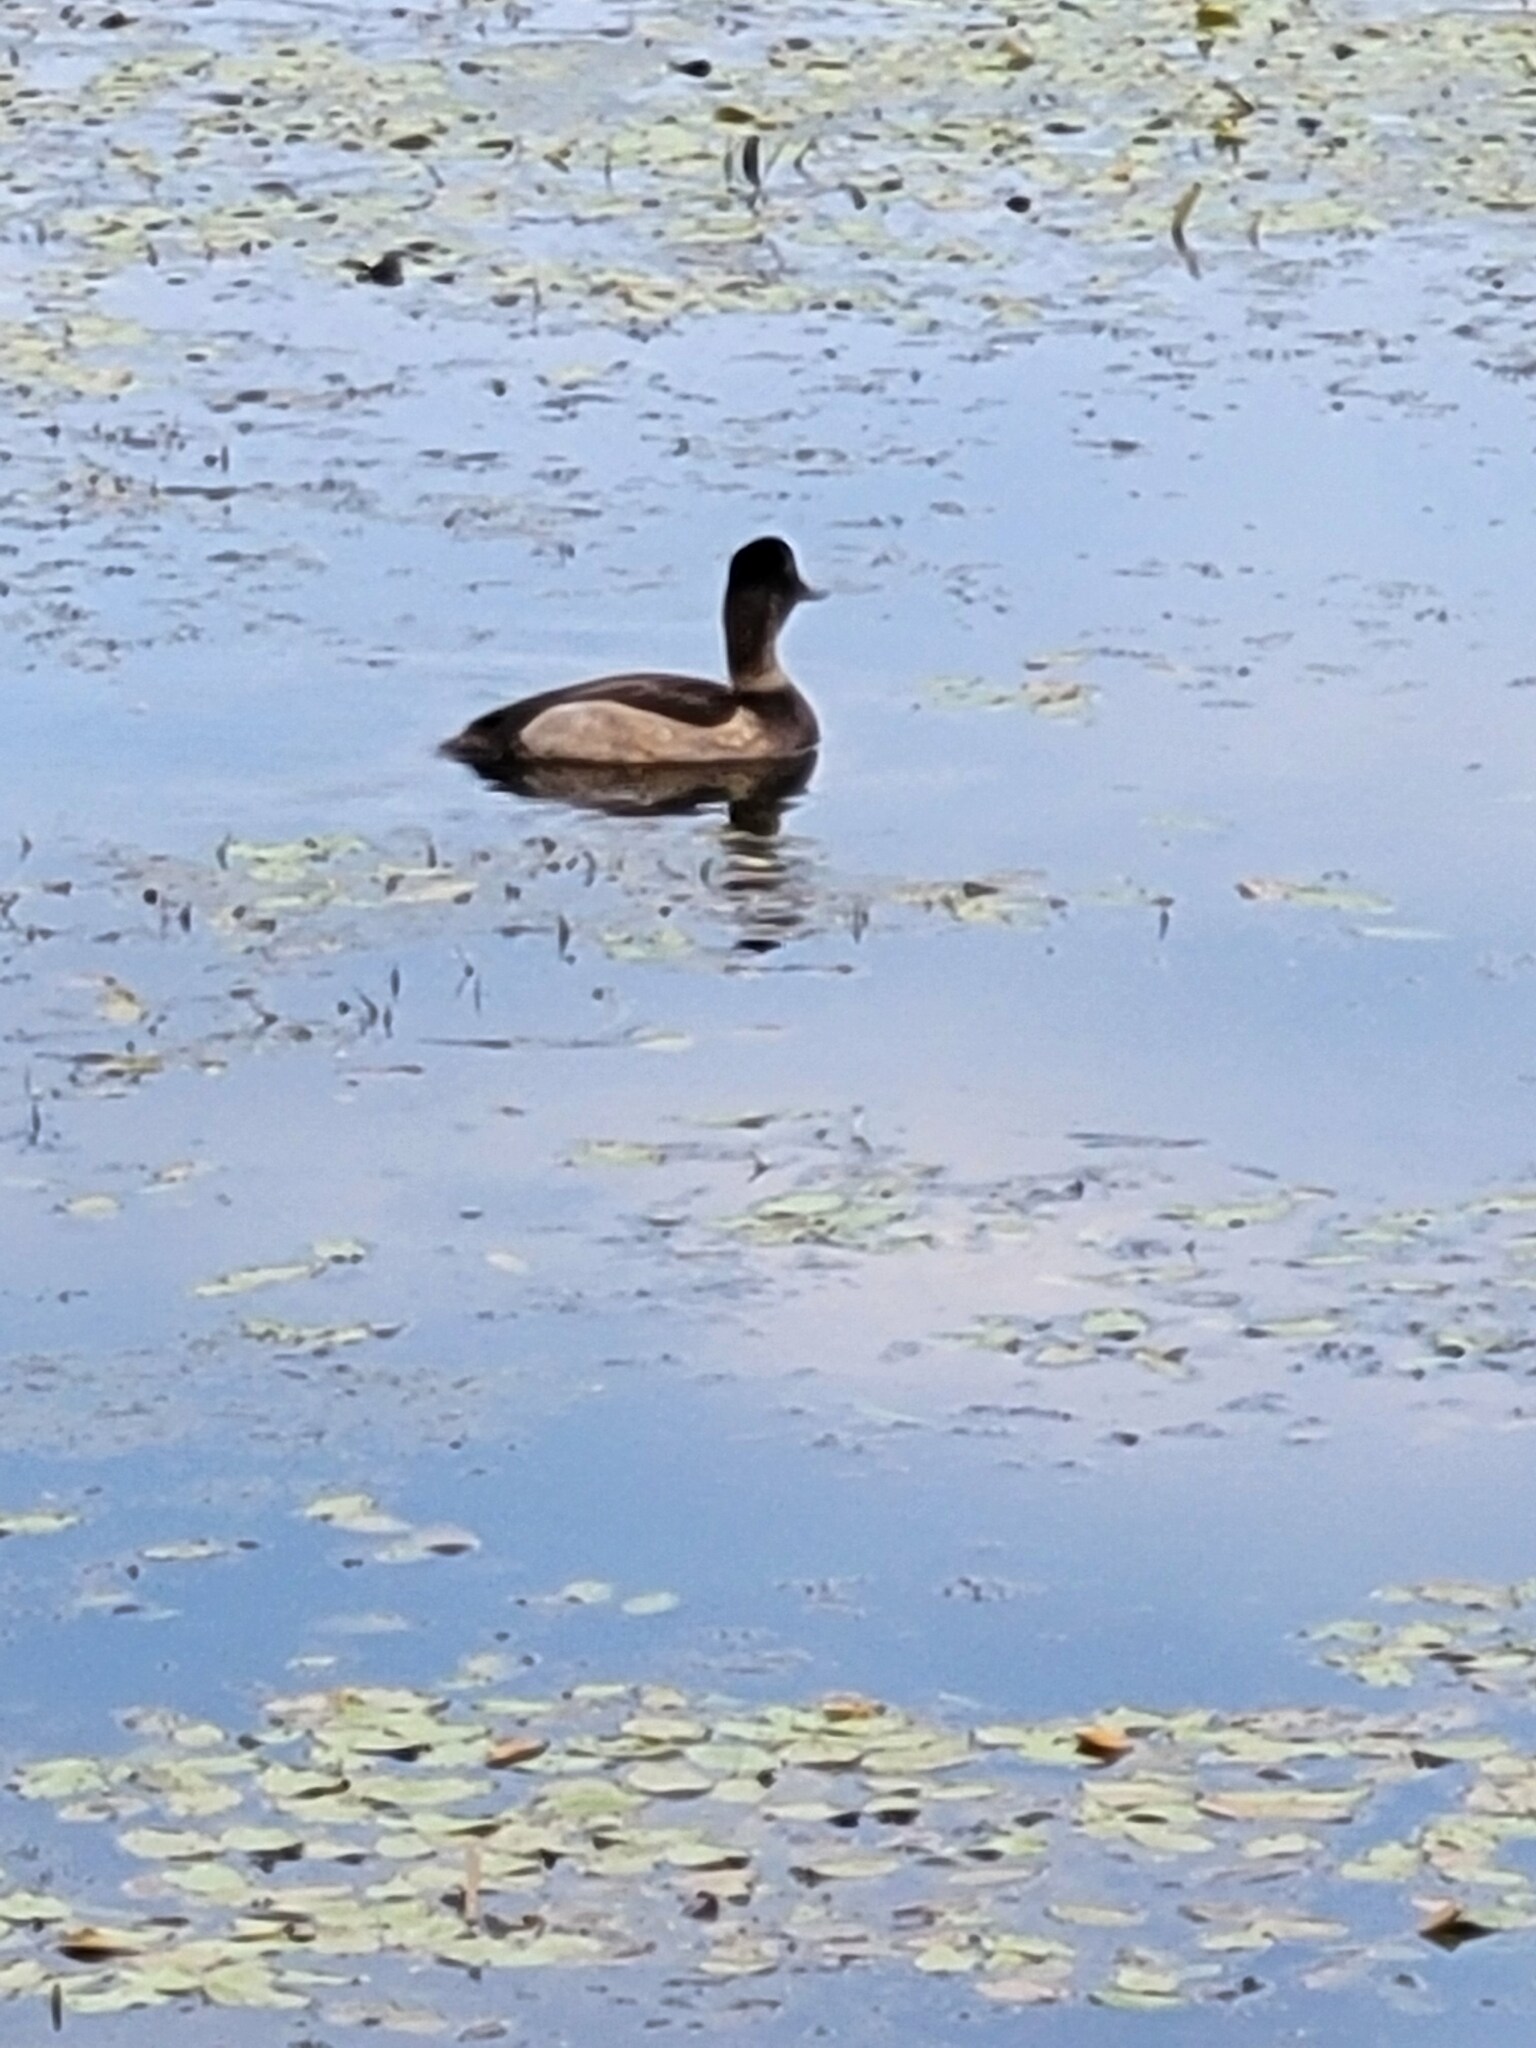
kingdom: Animalia
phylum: Chordata
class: Aves
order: Anseriformes
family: Anatidae
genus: Aythya
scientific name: Aythya collaris
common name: Ring-necked duck
